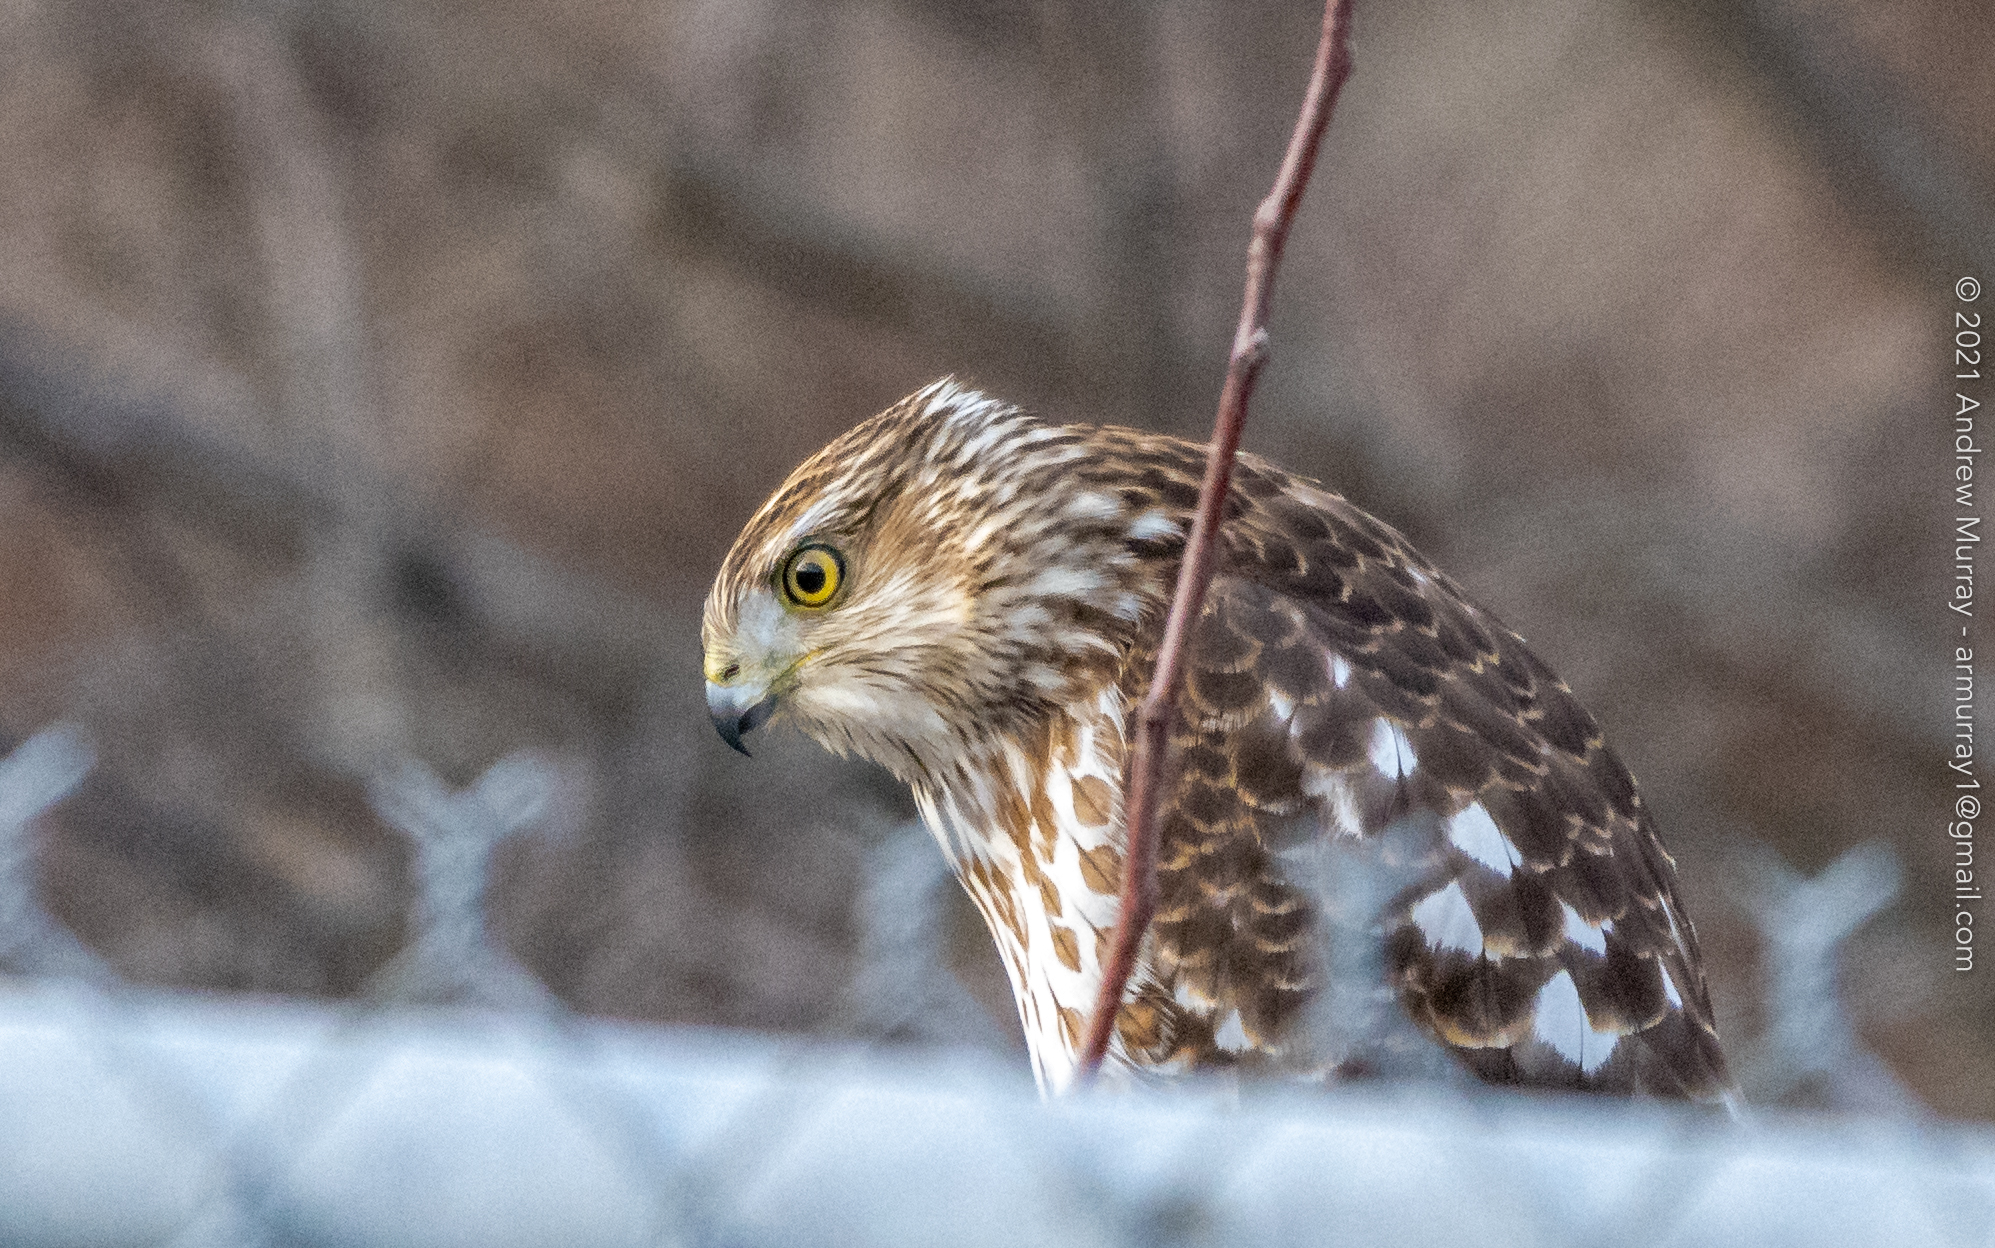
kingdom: Animalia
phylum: Chordata
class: Aves
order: Accipitriformes
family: Accipitridae
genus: Accipiter
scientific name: Accipiter cooperii
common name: Cooper's hawk
